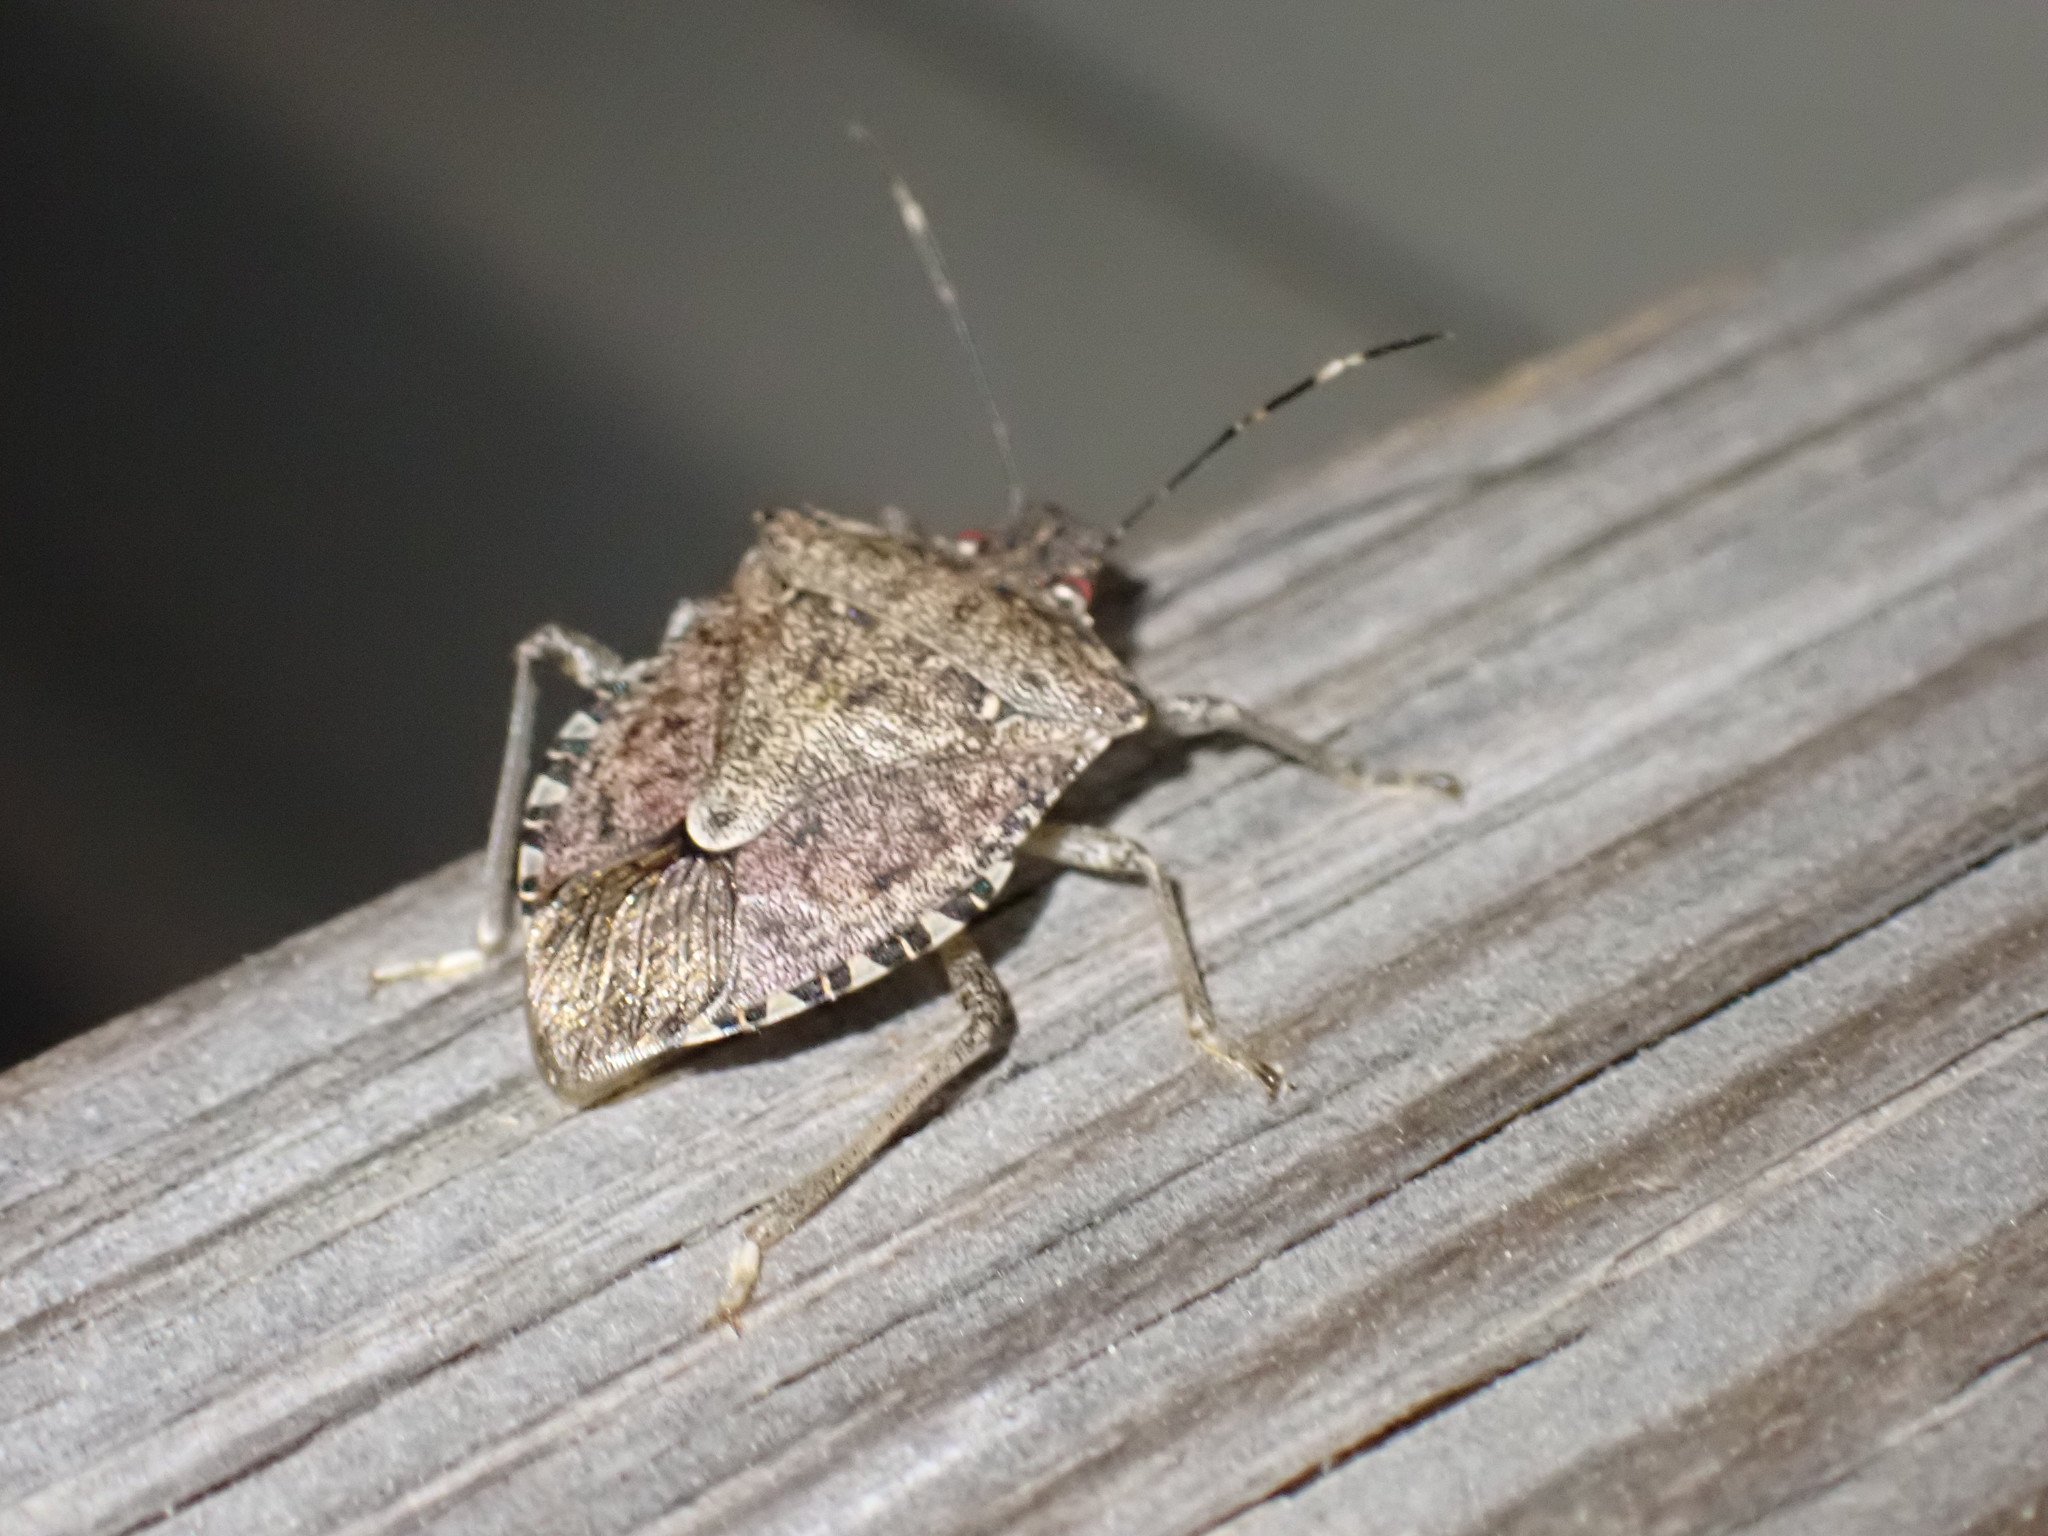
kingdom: Animalia
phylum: Arthropoda
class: Insecta
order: Hemiptera
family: Pentatomidae
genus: Halyomorpha
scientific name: Halyomorpha halys
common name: Brown marmorated stink bug
